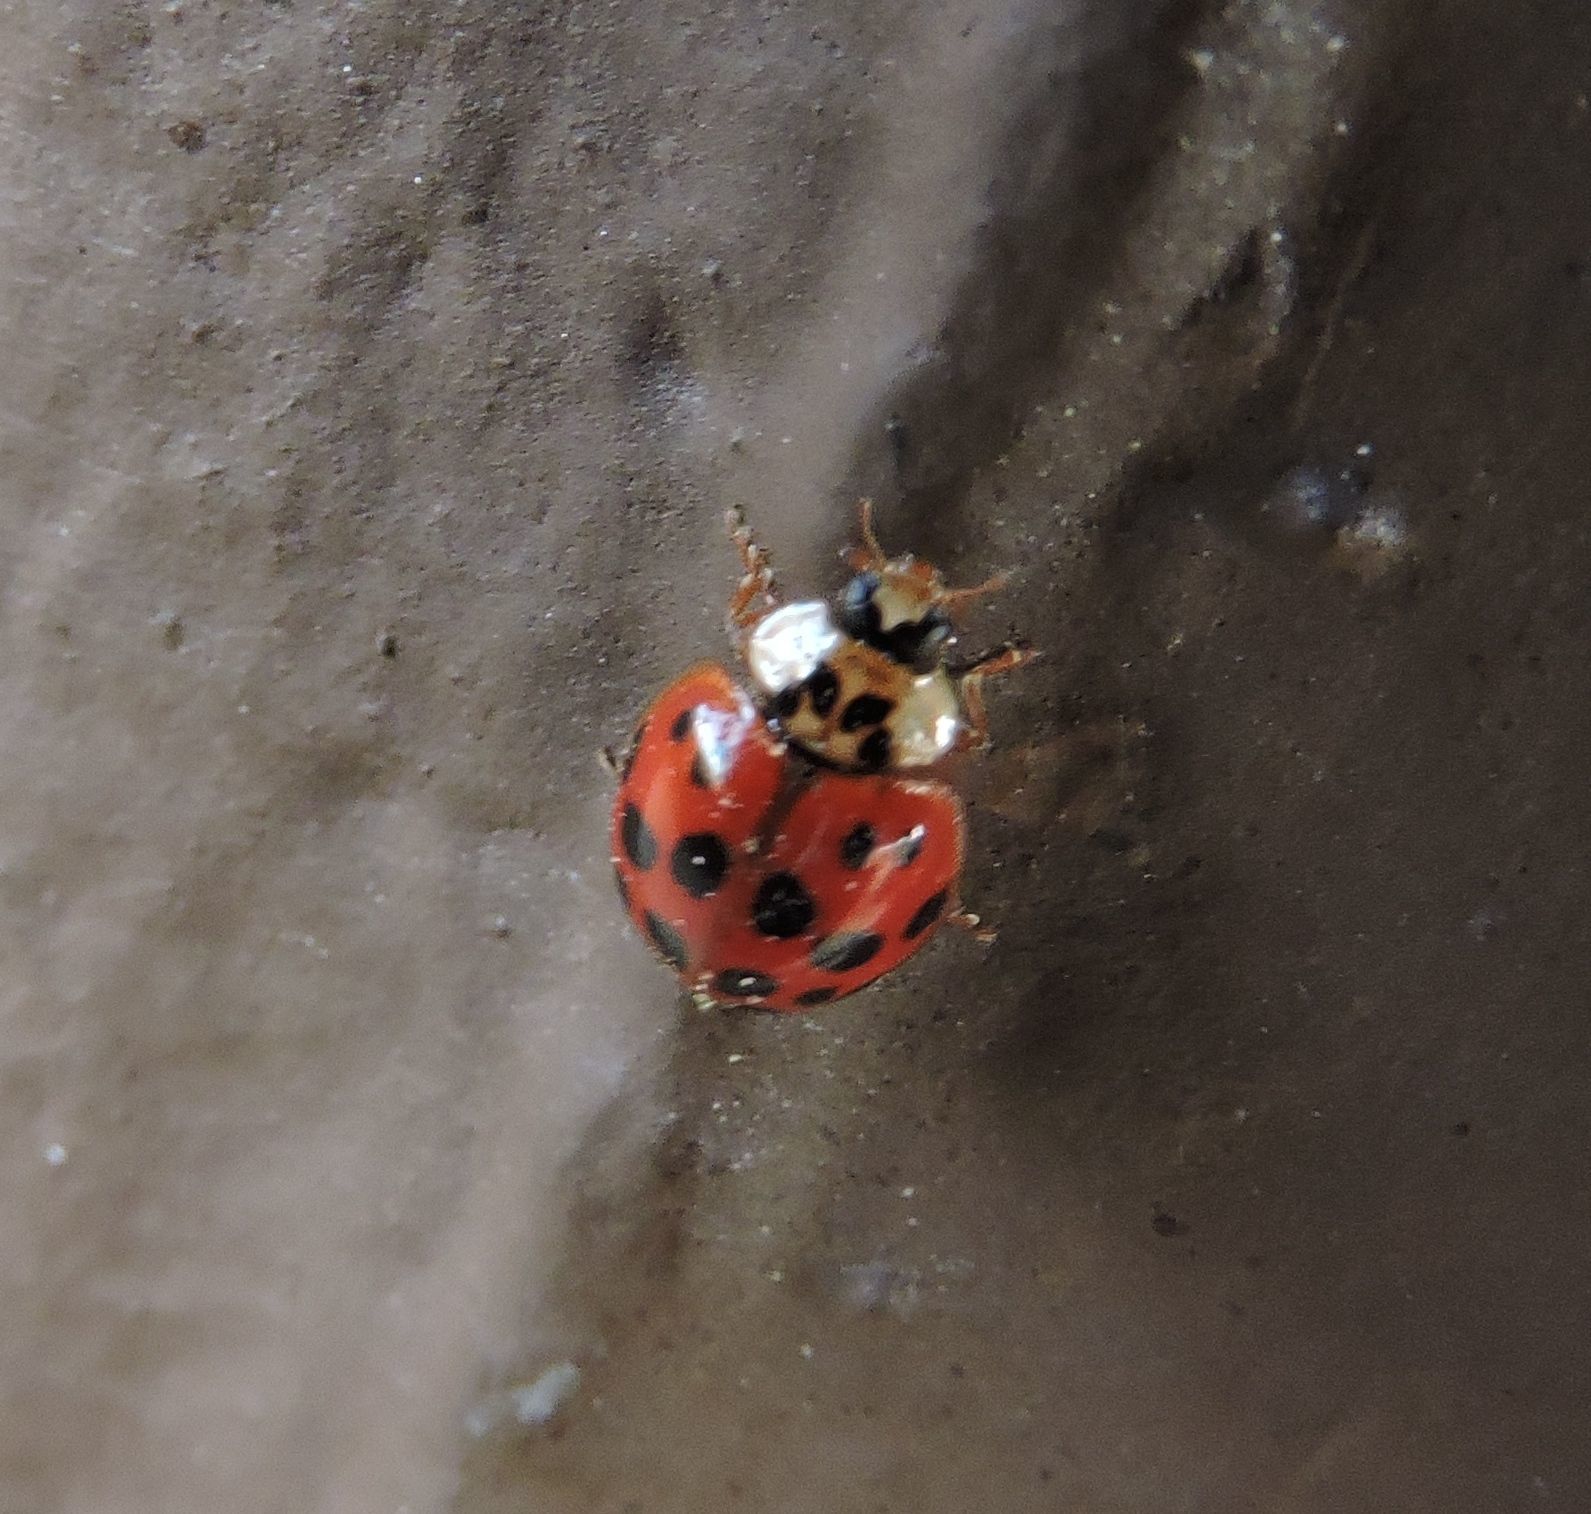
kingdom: Animalia
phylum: Arthropoda
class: Insecta
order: Coleoptera
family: Coccinellidae
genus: Harmonia
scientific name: Harmonia axyridis
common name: Harlequin ladybird
